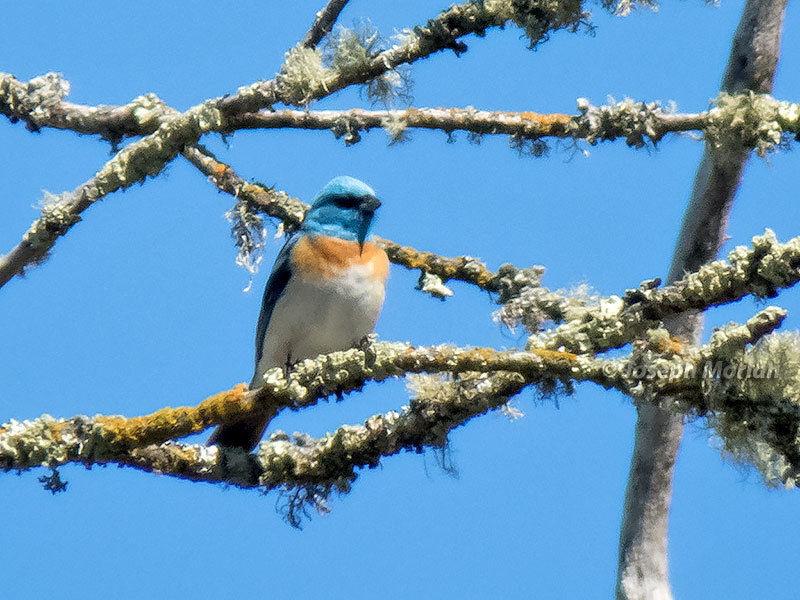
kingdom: Animalia
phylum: Chordata
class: Aves
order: Passeriformes
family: Cardinalidae
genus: Passerina
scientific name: Passerina amoena
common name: Lazuli bunting
